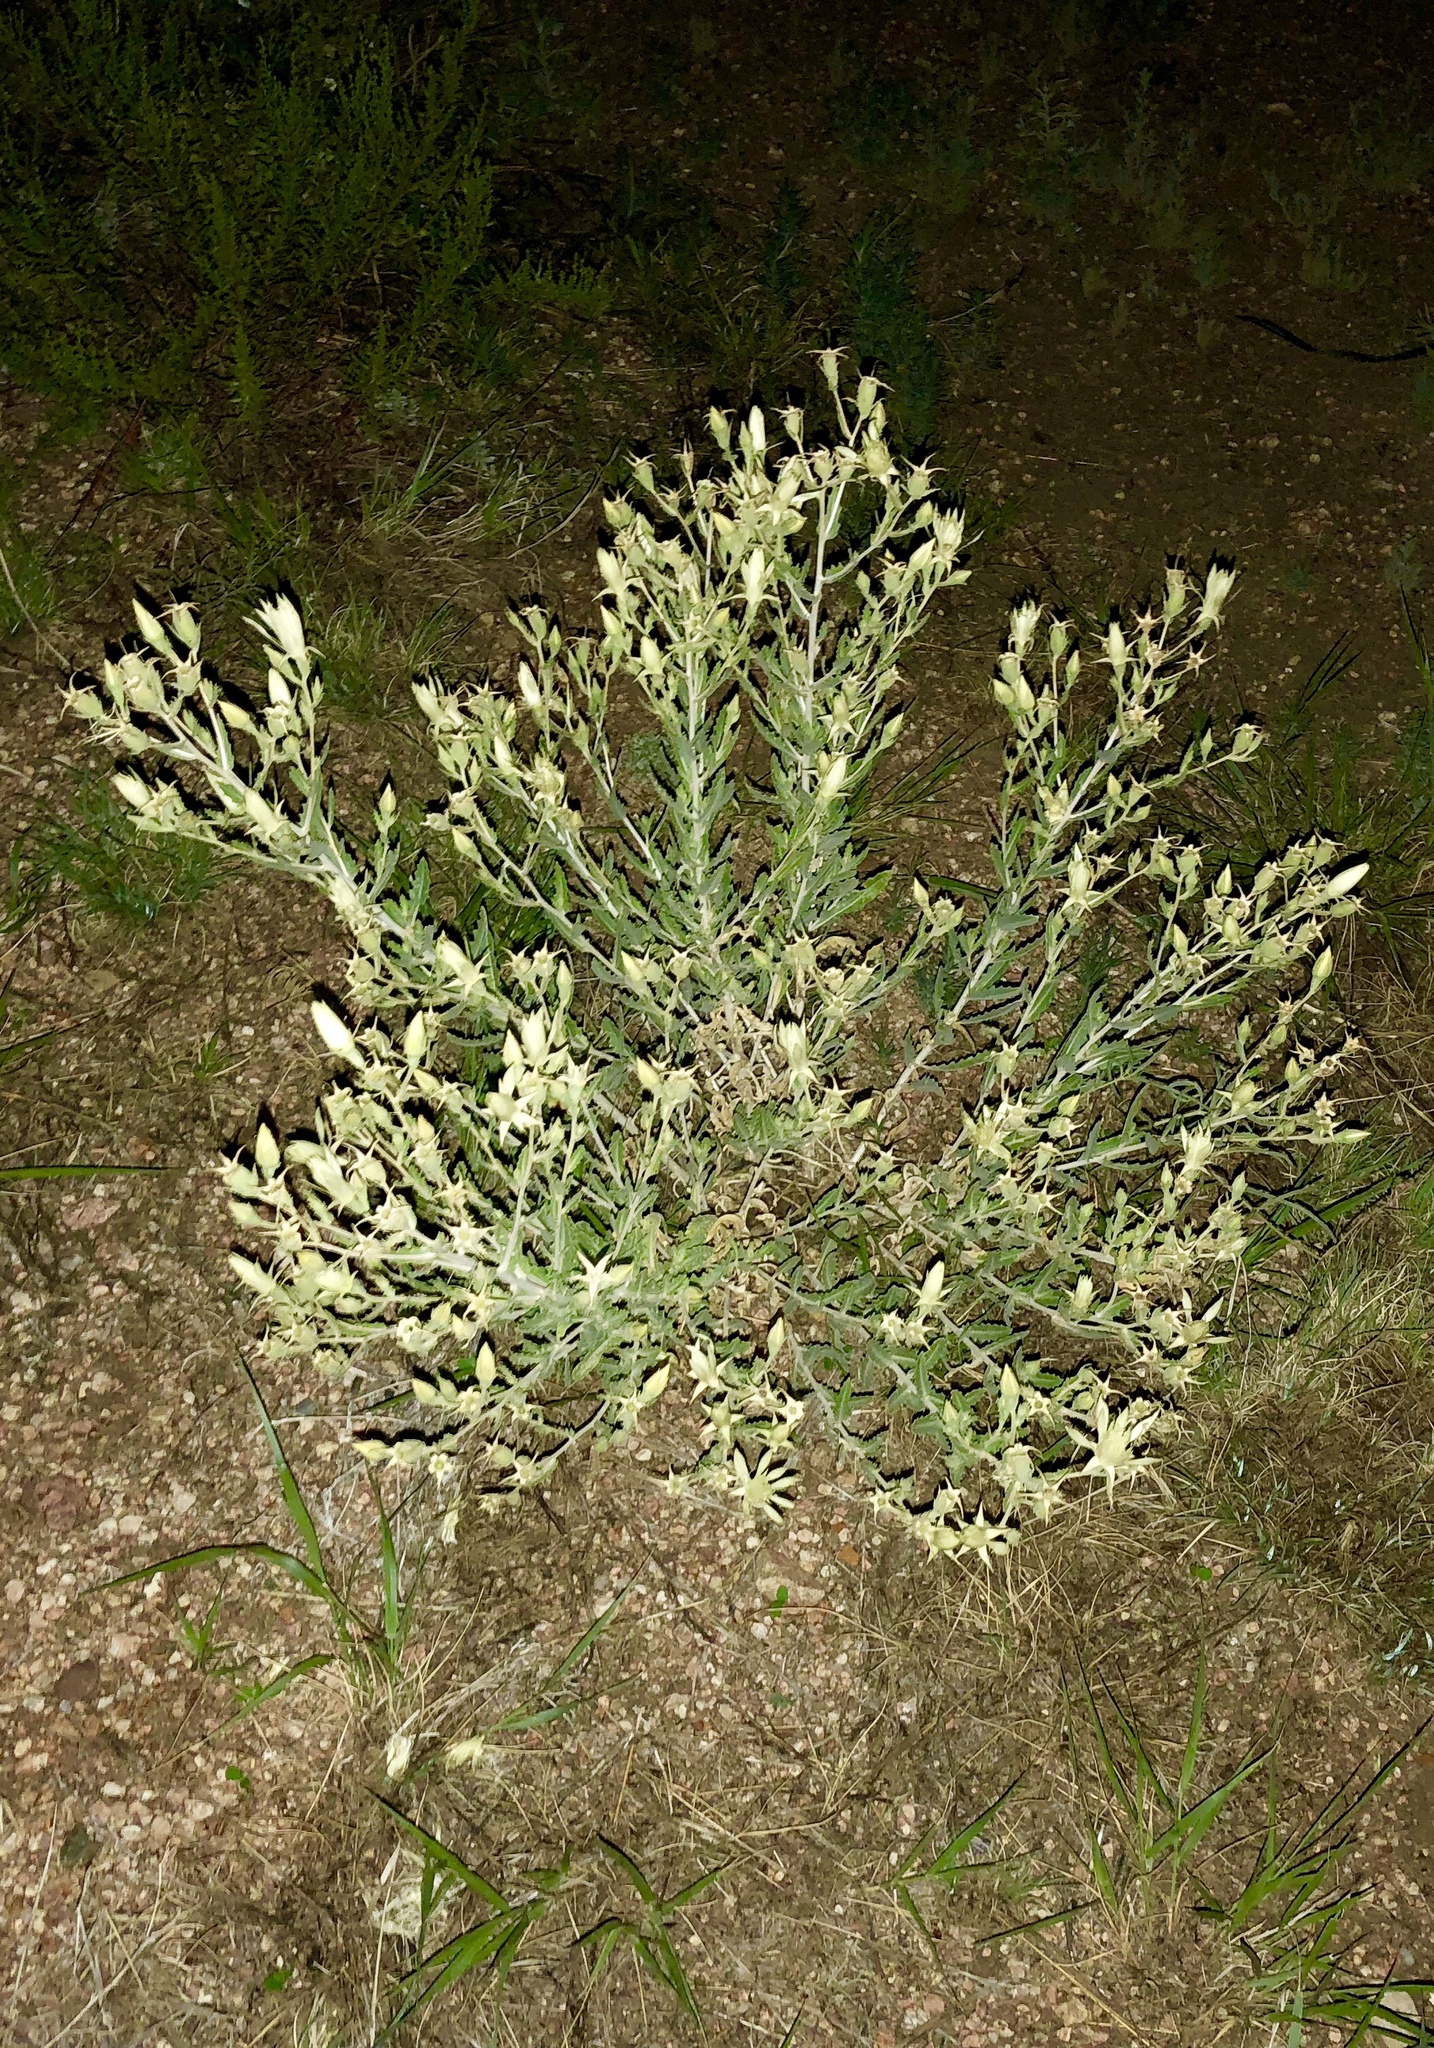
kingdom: Plantae
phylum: Tracheophyta
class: Magnoliopsida
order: Cornales
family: Loasaceae
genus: Mentzelia
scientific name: Mentzelia laevicaulis
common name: Smooth-stem blazingstar
